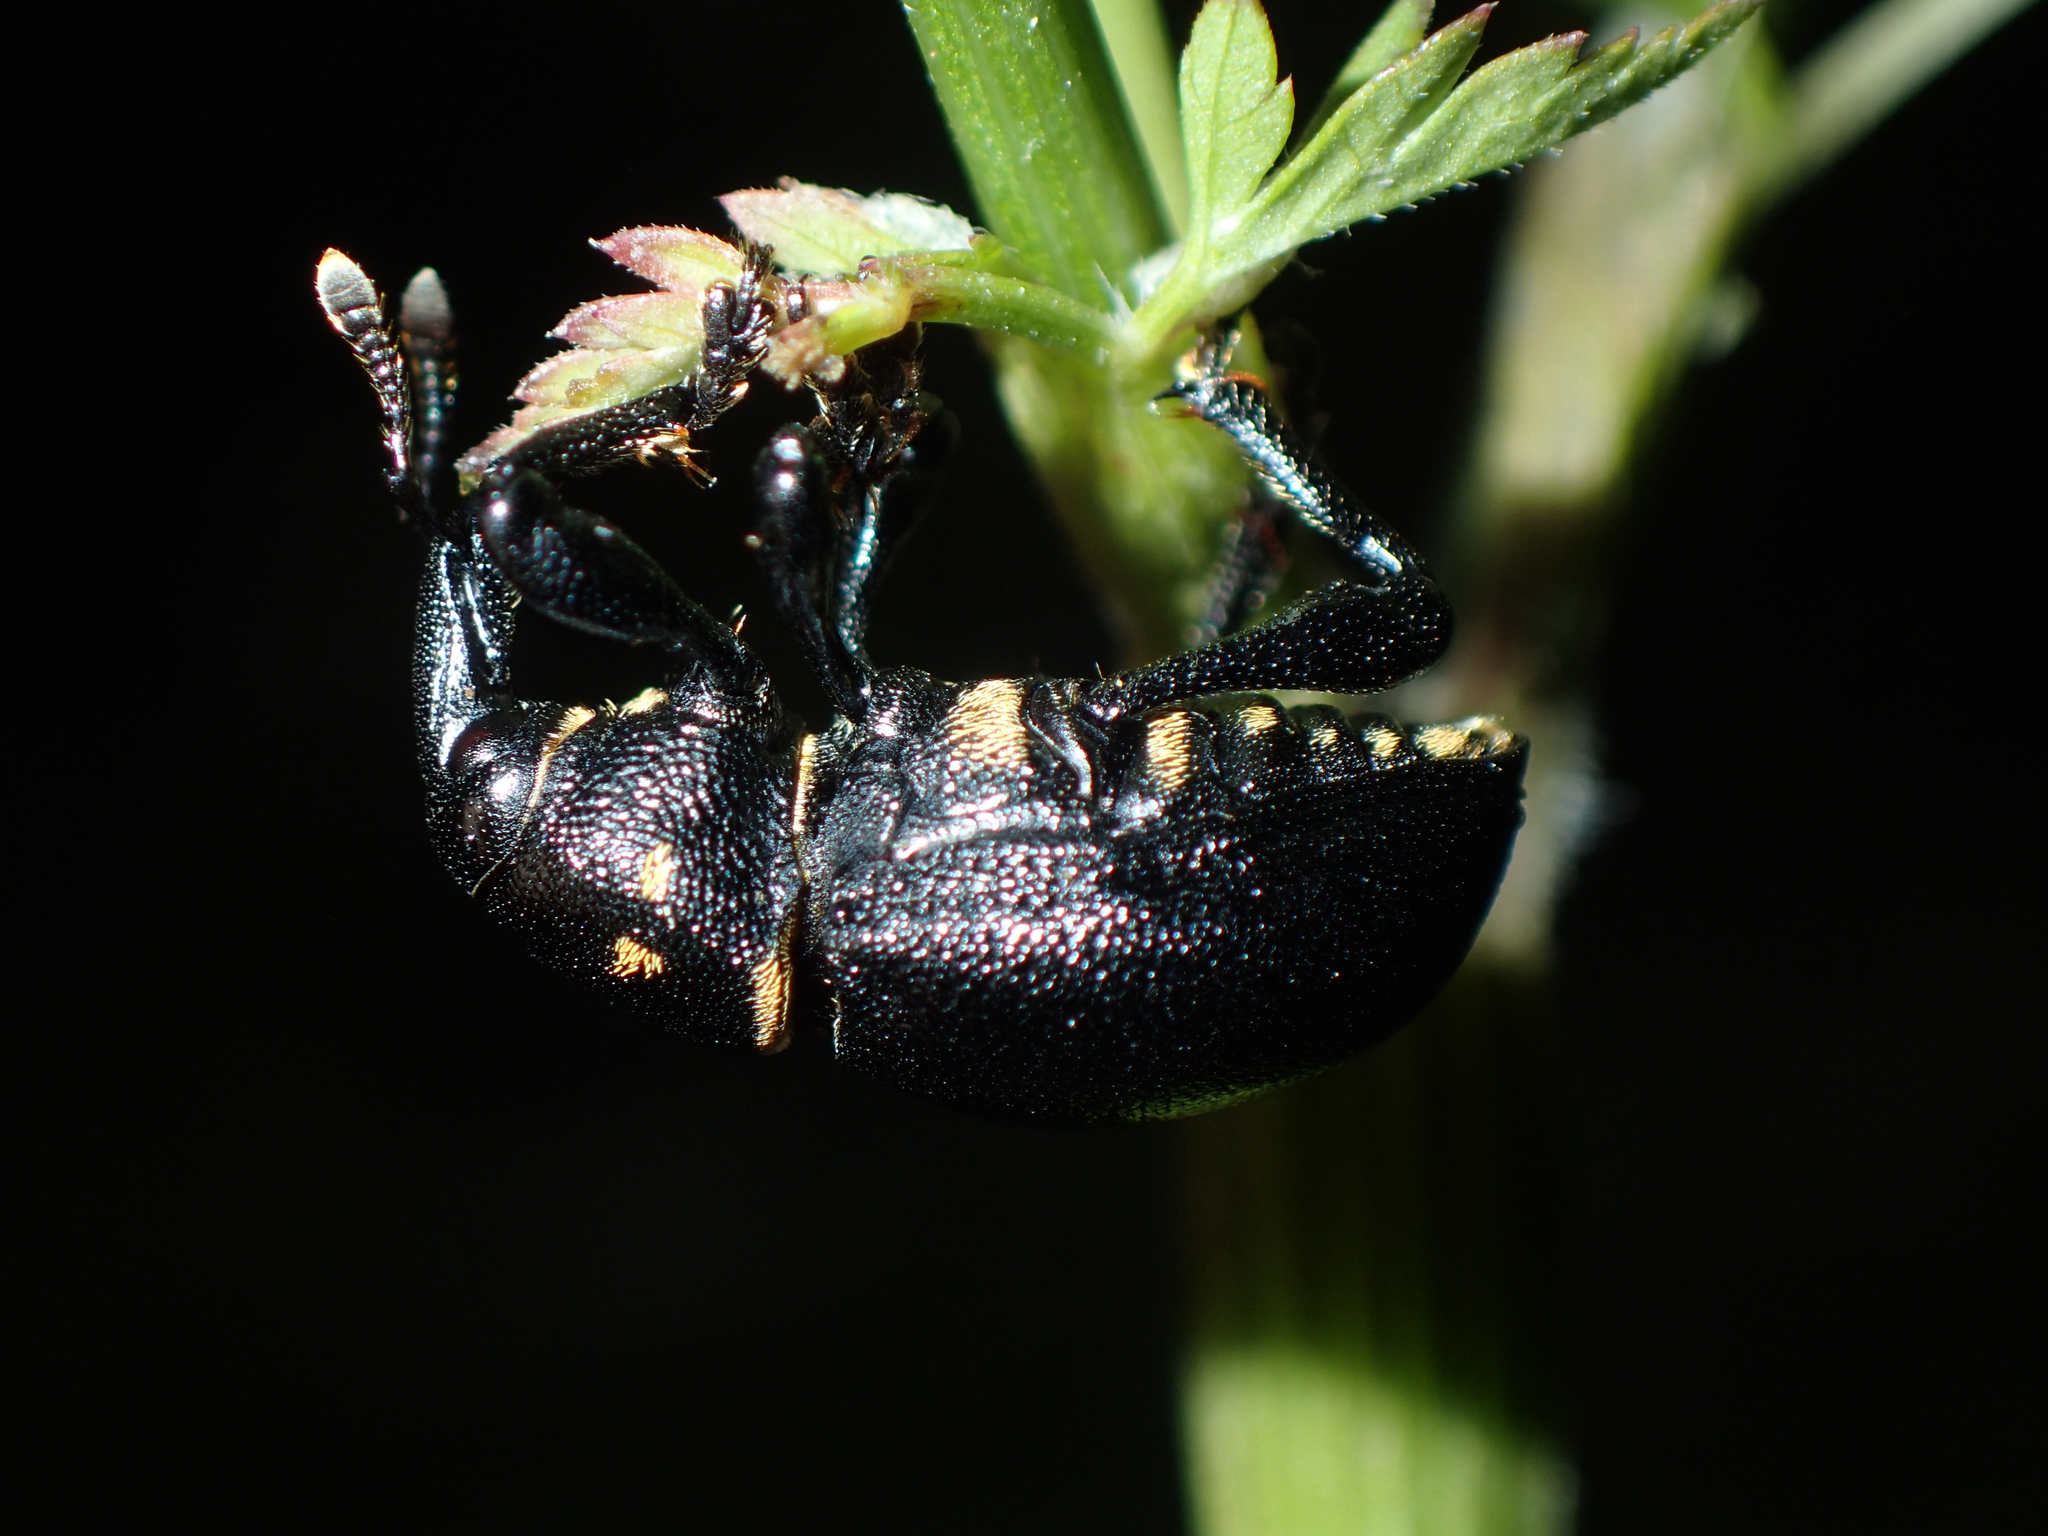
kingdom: Animalia
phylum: Arthropoda
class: Insecta
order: Coleoptera
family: Curculionidae
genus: Liparus
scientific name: Liparus coronatus
